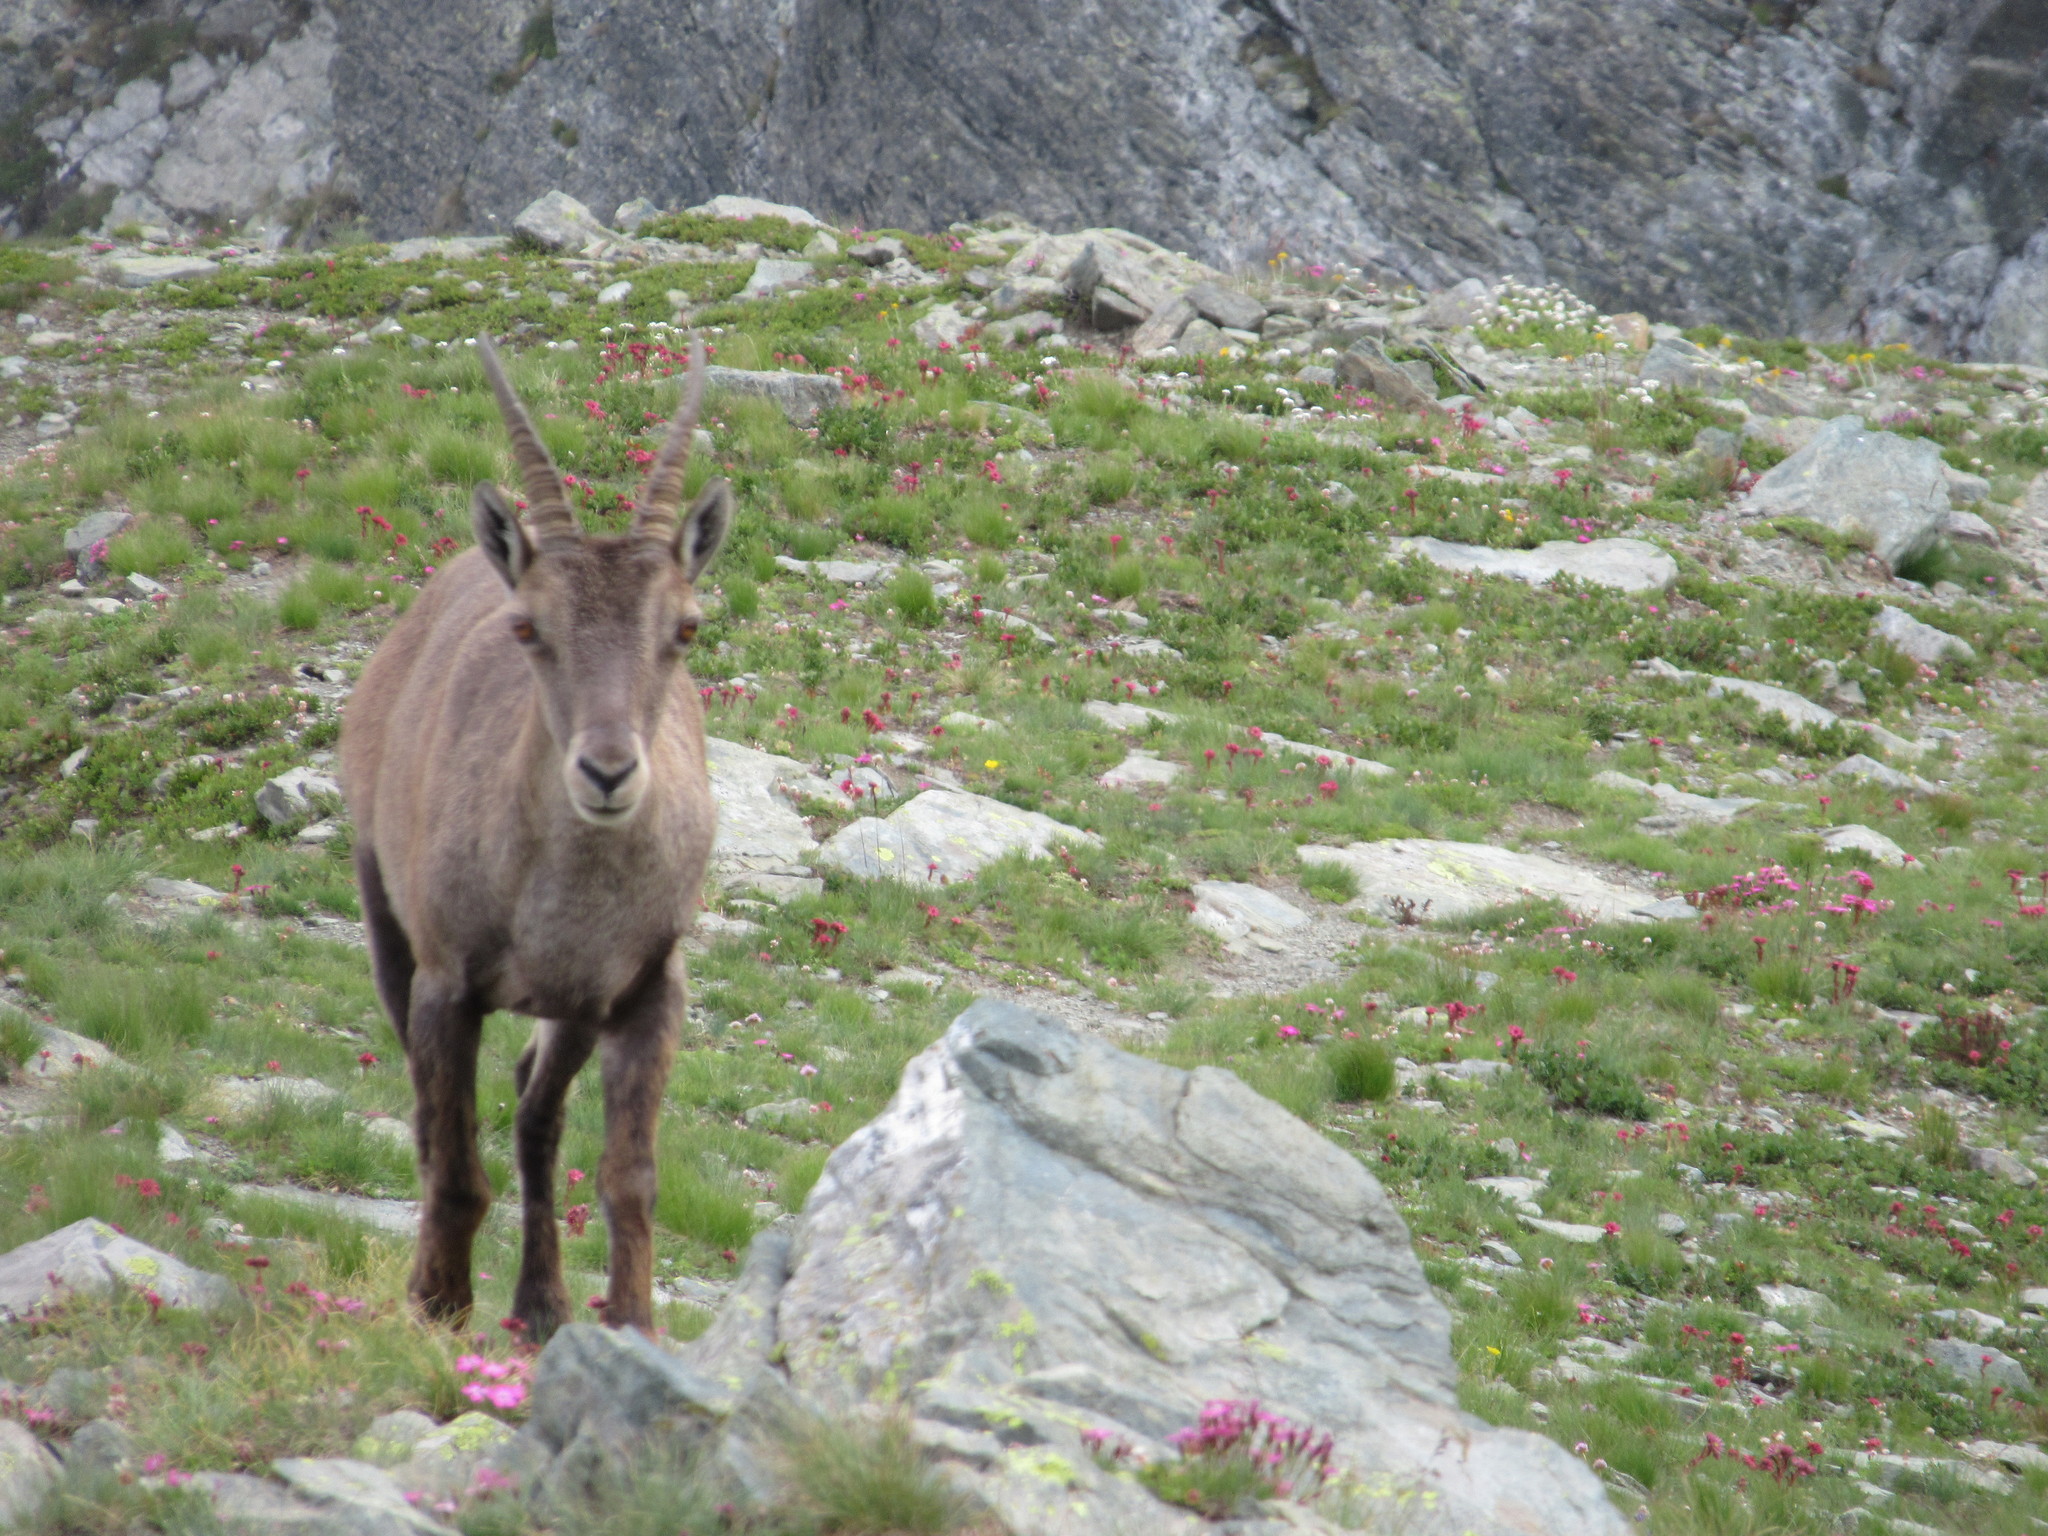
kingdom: Animalia
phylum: Chordata
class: Mammalia
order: Artiodactyla
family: Bovidae
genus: Capra
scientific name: Capra ibex
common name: Alpine ibex
